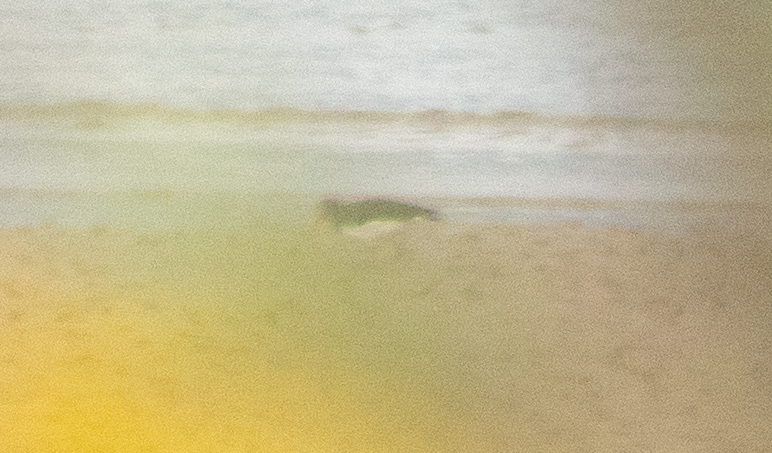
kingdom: Animalia
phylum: Chordata
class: Aves
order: Charadriiformes
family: Haematopodidae
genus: Haematopus
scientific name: Haematopus ostralegus
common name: Eurasian oystercatcher
